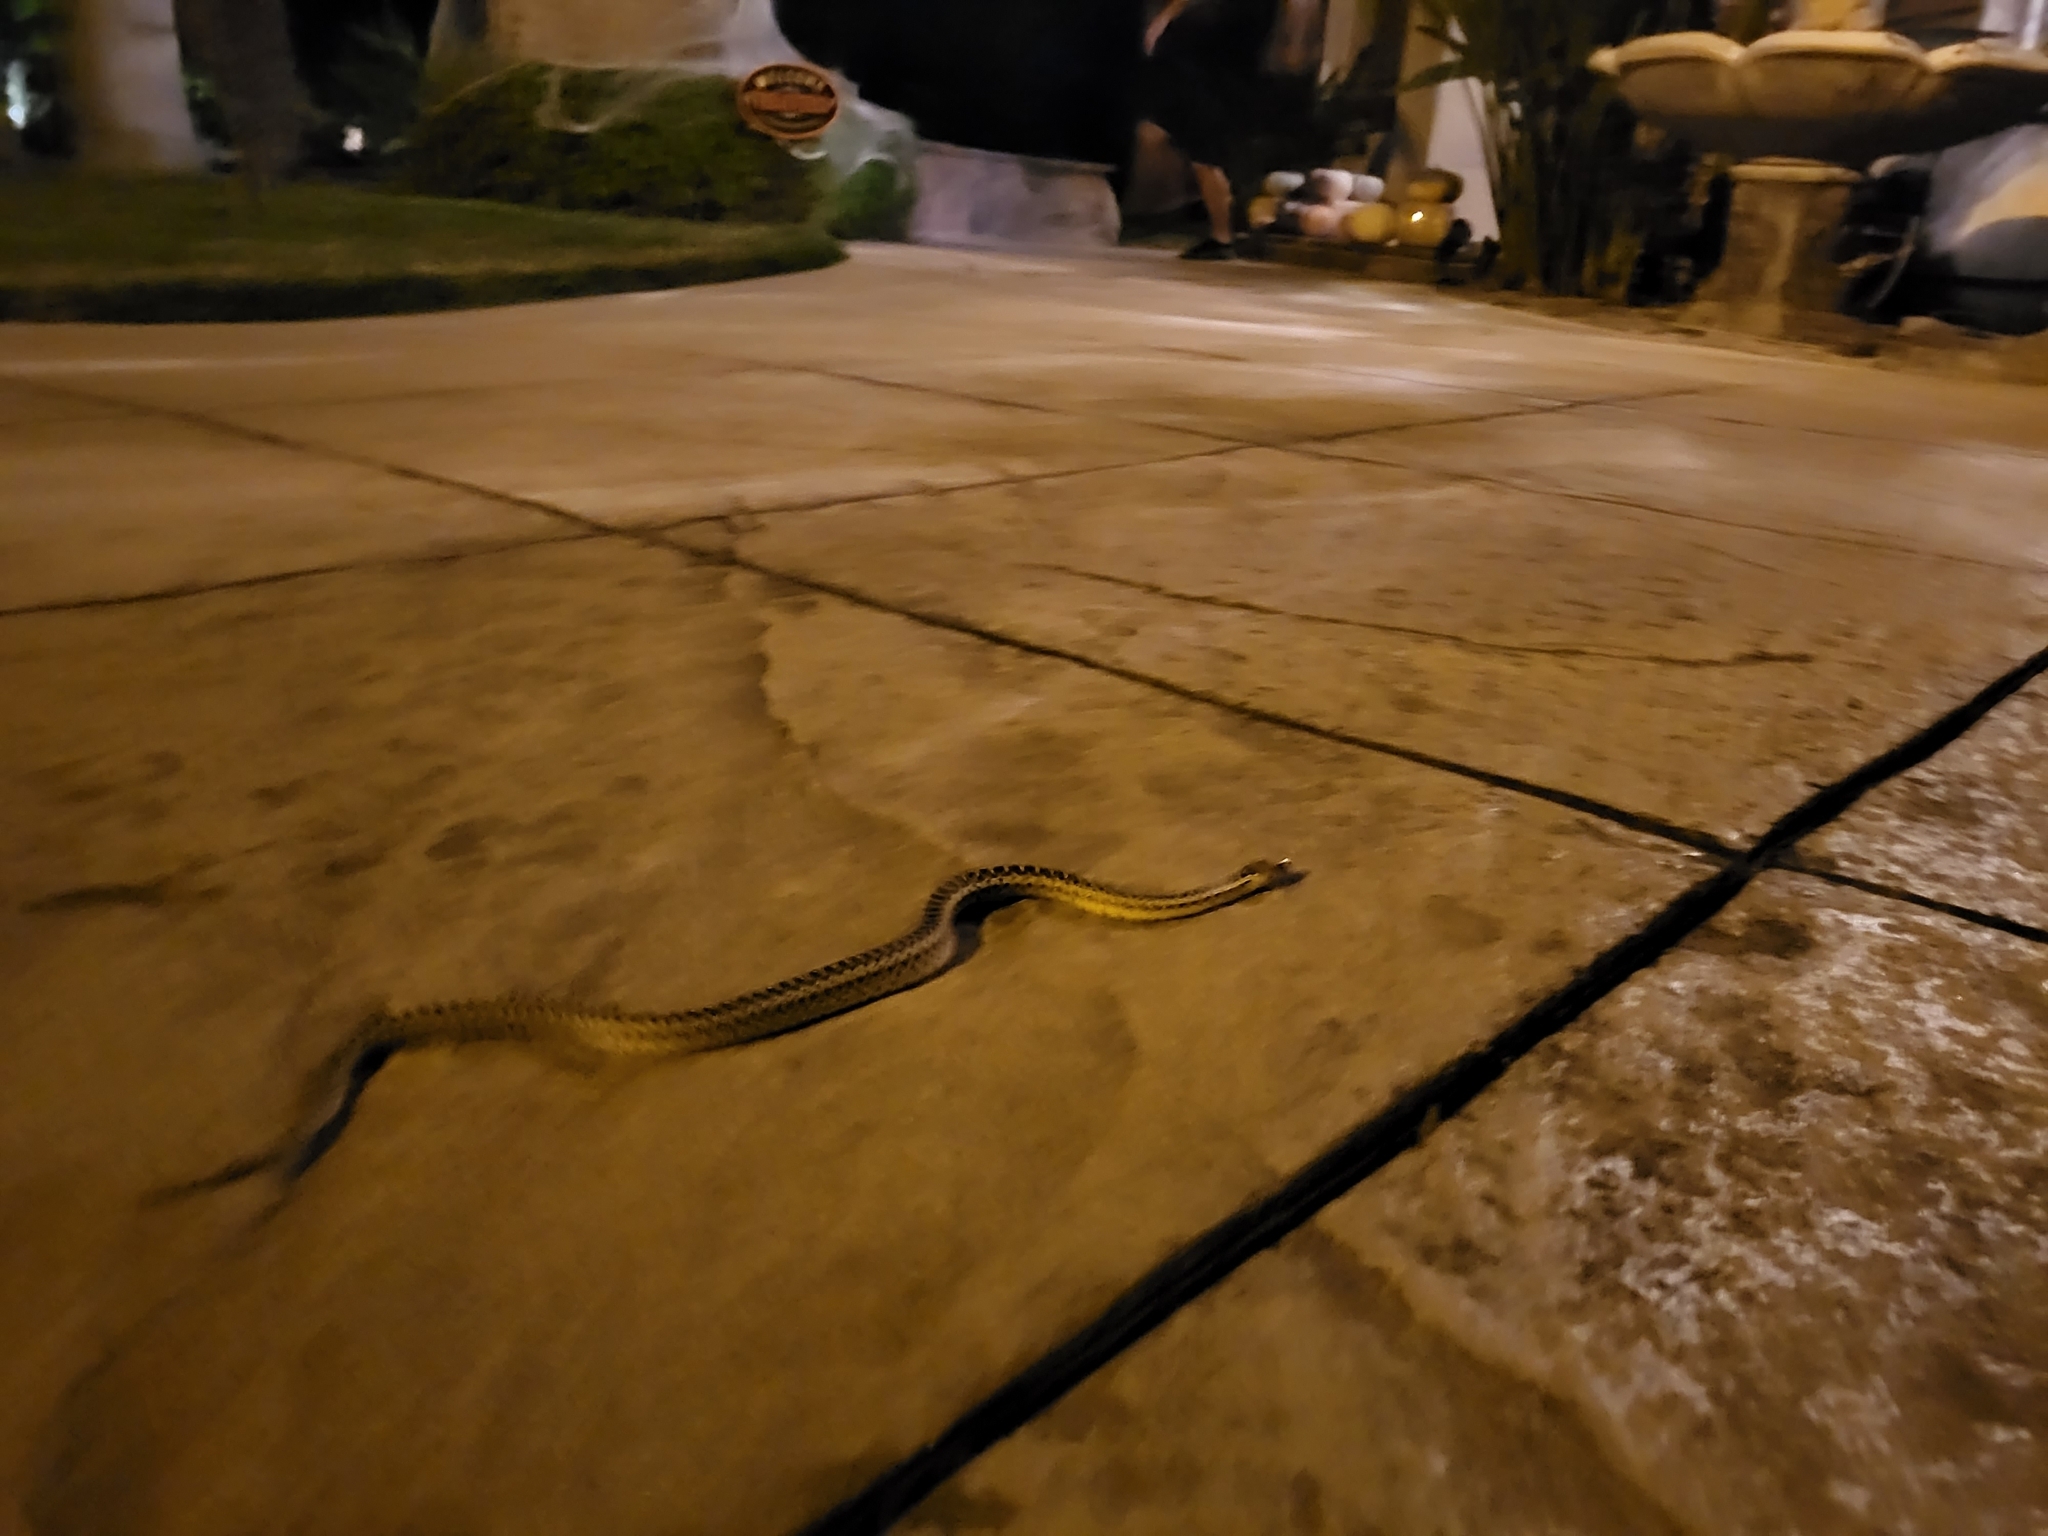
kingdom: Animalia
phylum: Chordata
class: Squamata
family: Colubridae
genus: Pituophis
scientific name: Pituophis catenifer
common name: Gopher snake
